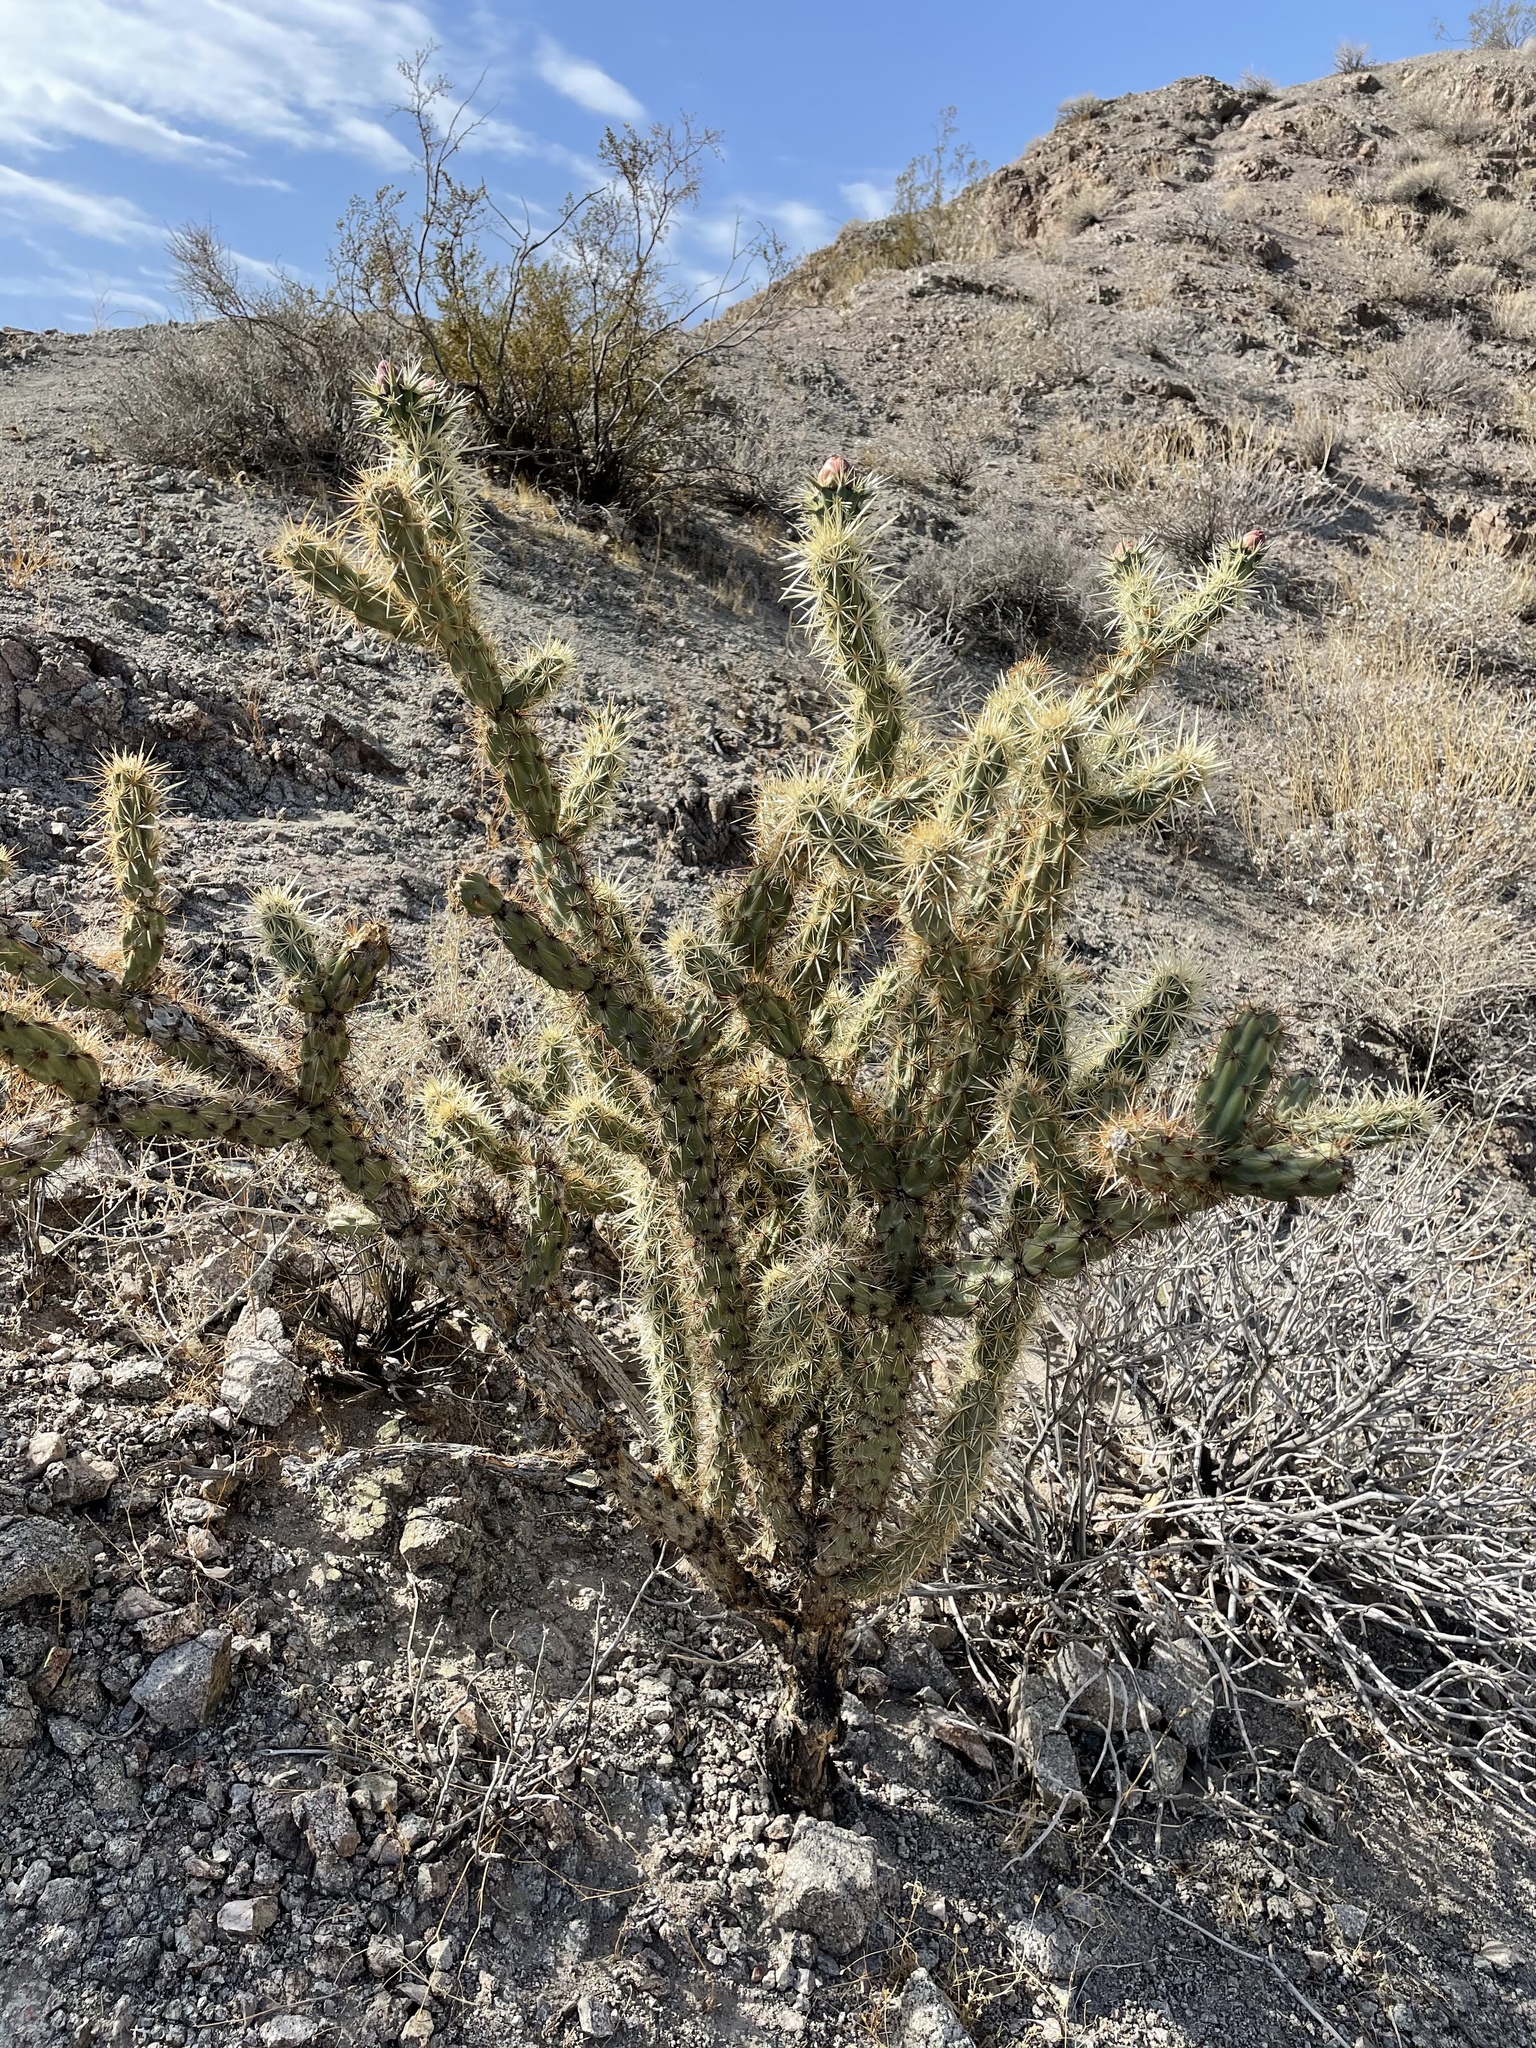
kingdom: Plantae
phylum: Tracheophyta
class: Magnoliopsida
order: Caryophyllales
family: Cactaceae
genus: Cylindropuntia
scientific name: Cylindropuntia acanthocarpa
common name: Buckhorn cholla
